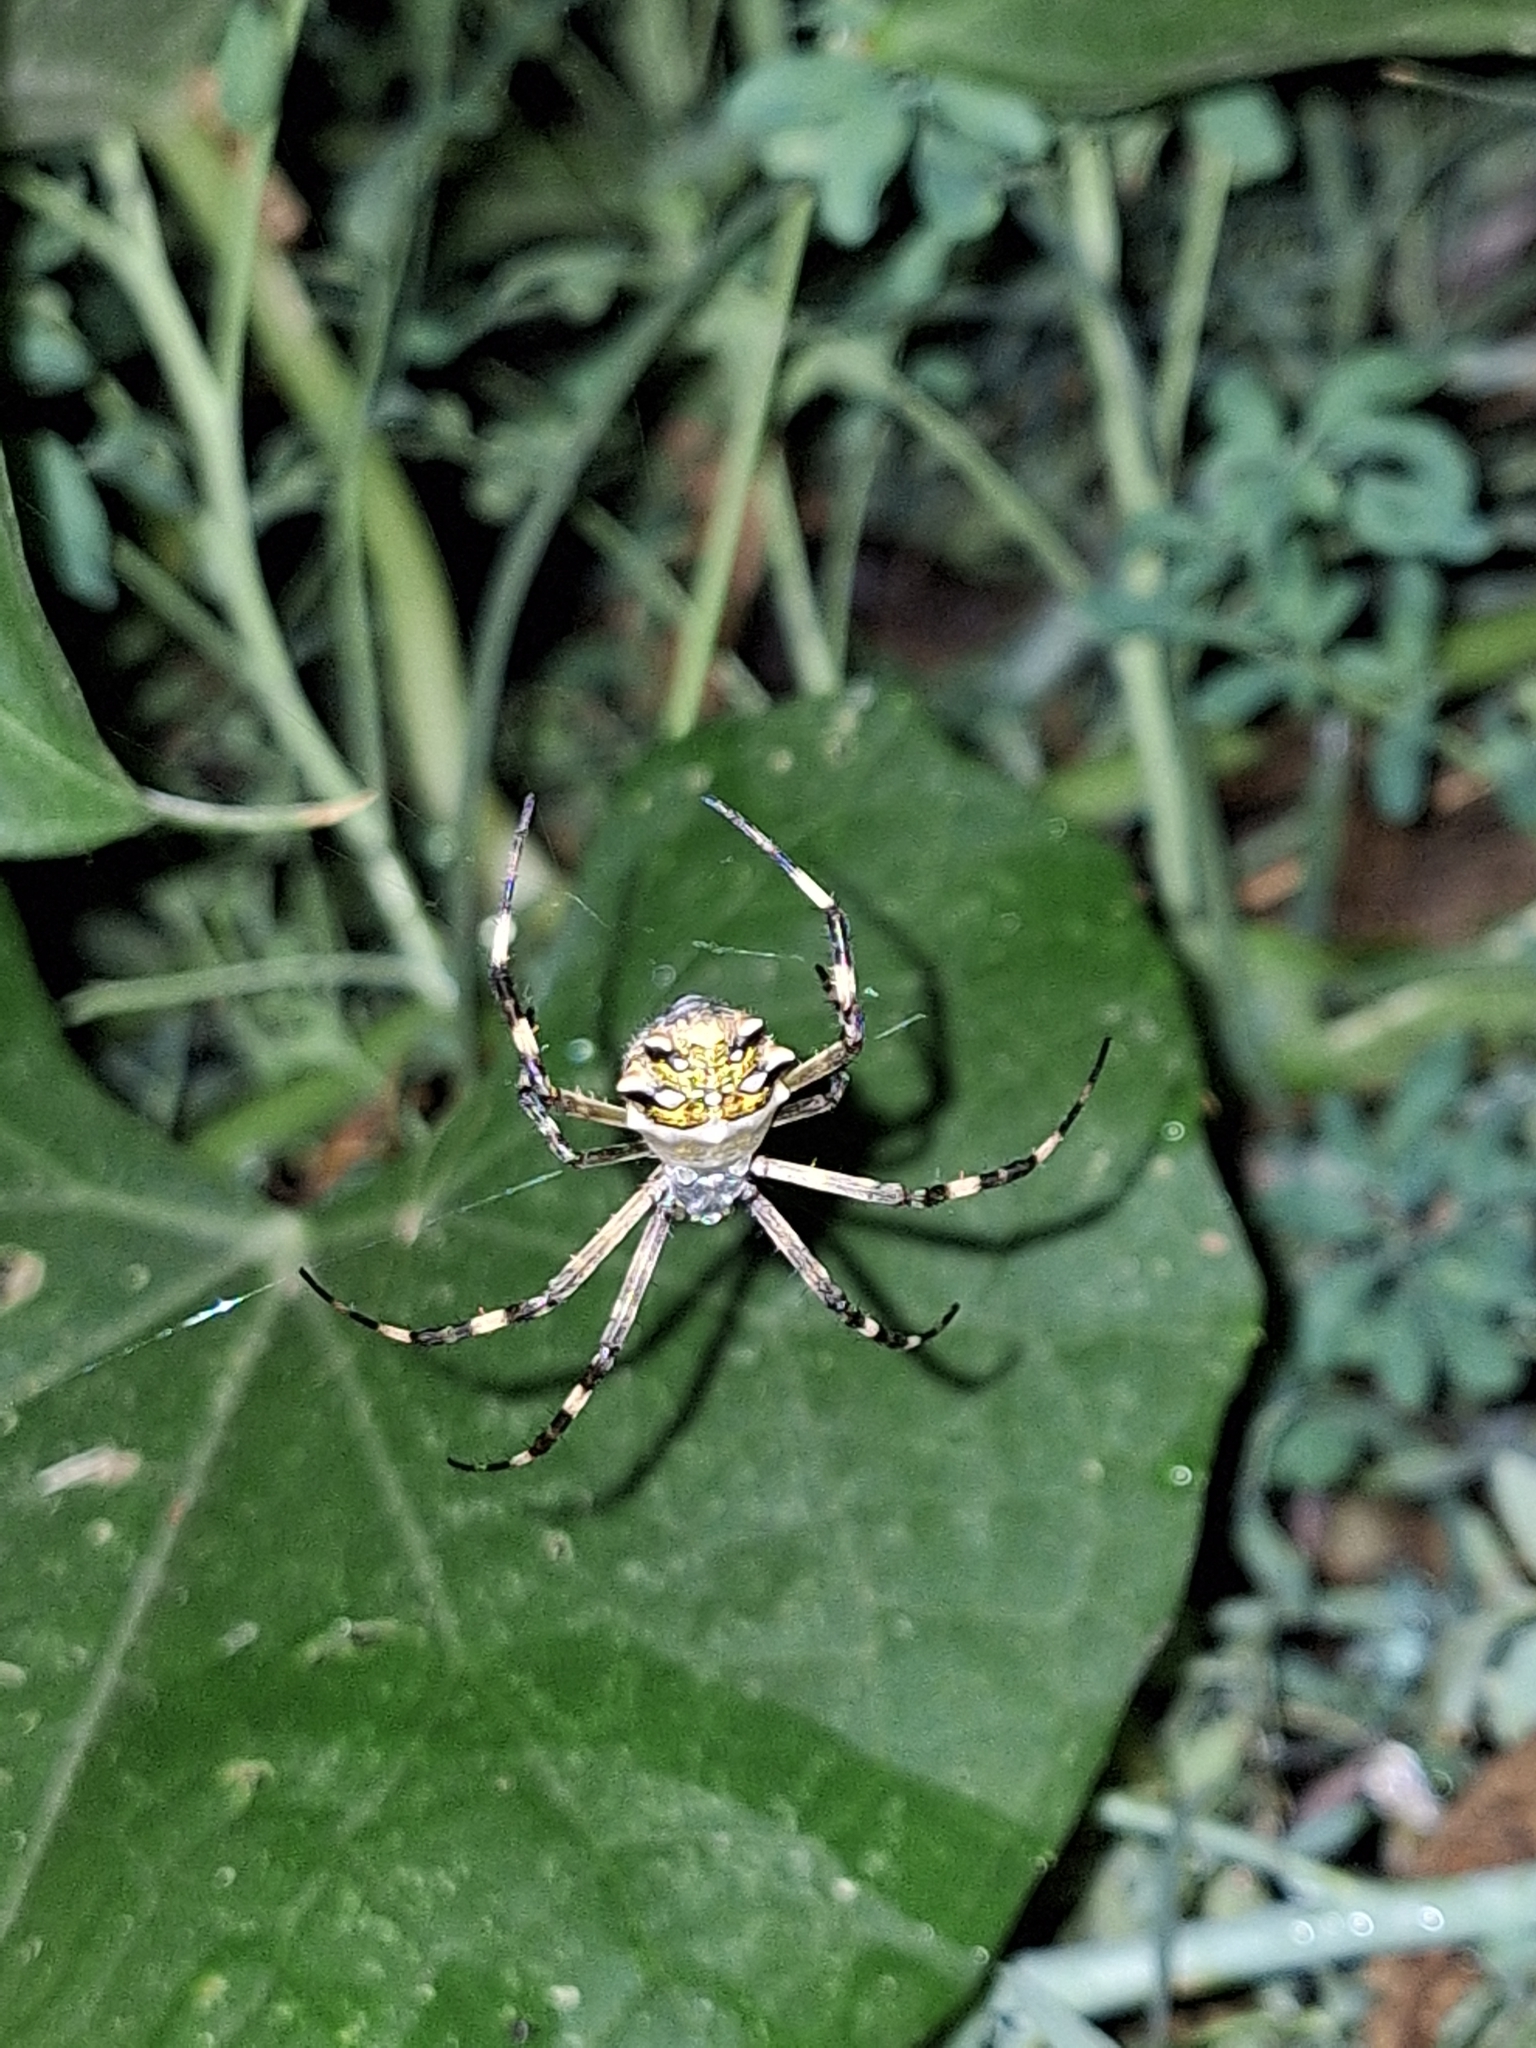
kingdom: Animalia
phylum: Arthropoda
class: Arachnida
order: Araneae
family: Araneidae
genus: Argiope
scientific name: Argiope argentata
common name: Orb weavers
